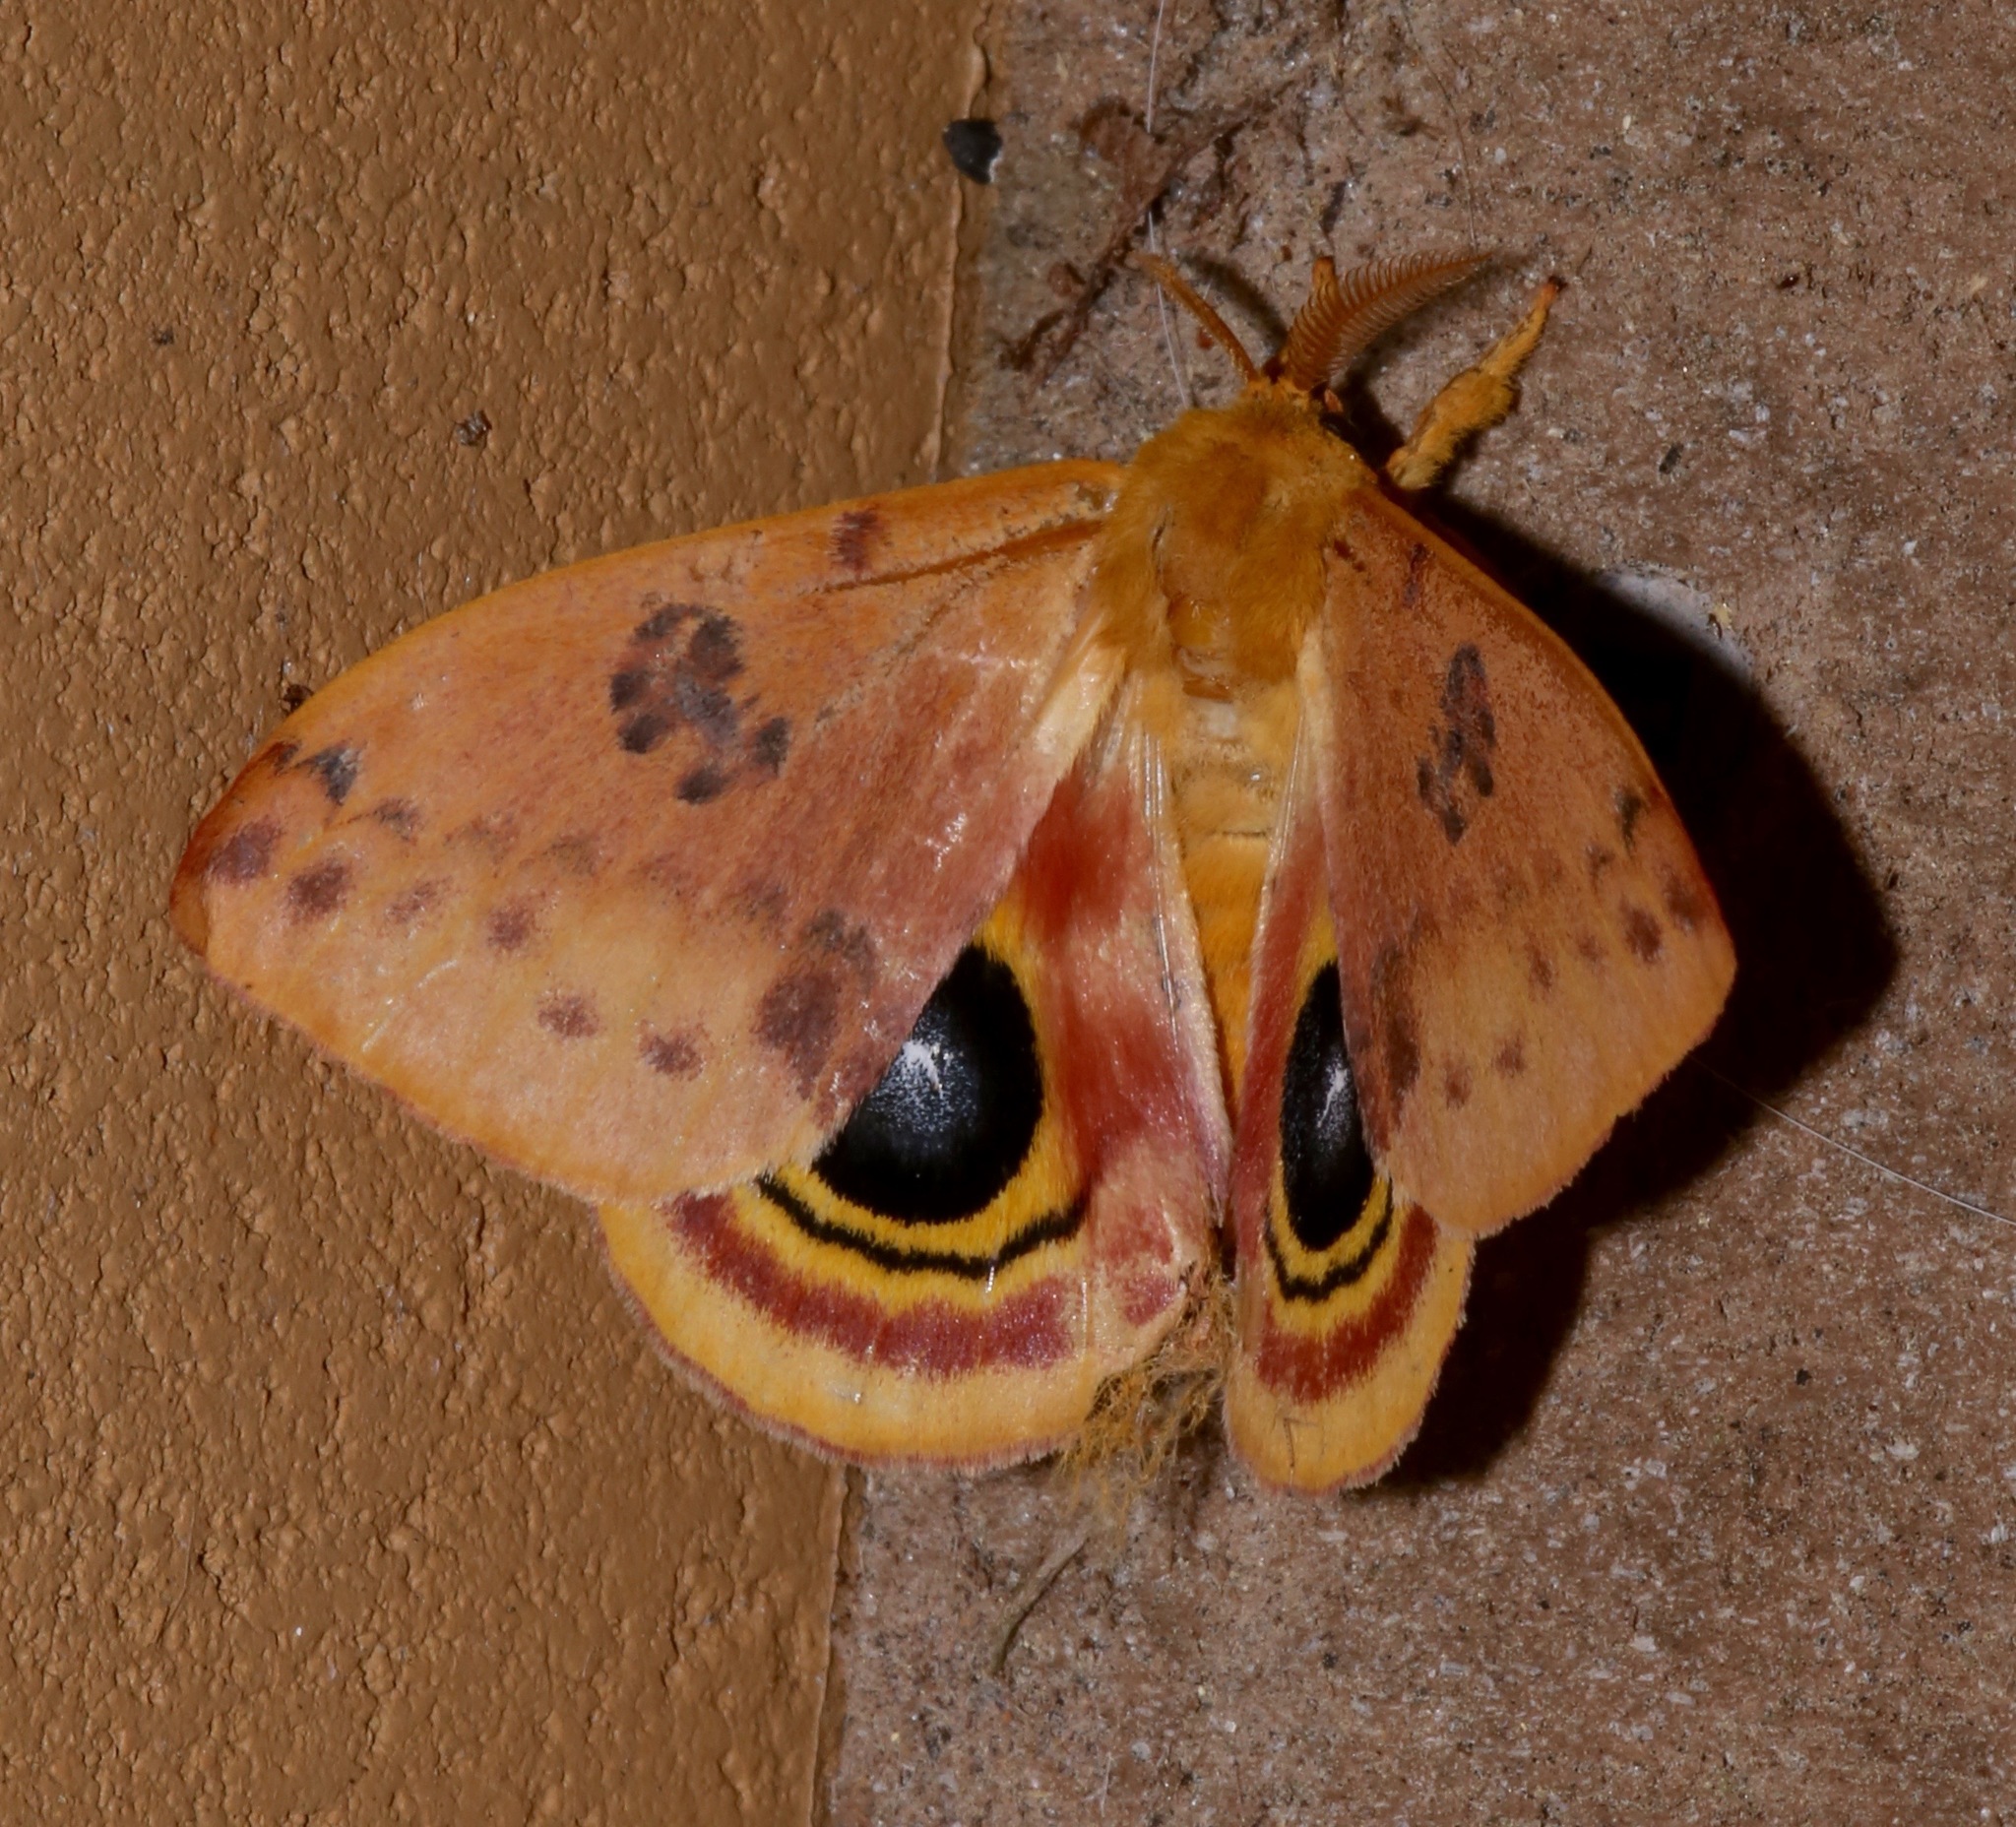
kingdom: Animalia
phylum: Arthropoda
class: Insecta
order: Lepidoptera
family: Saturniidae
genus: Automeris
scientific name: Automeris io
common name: Io moth
